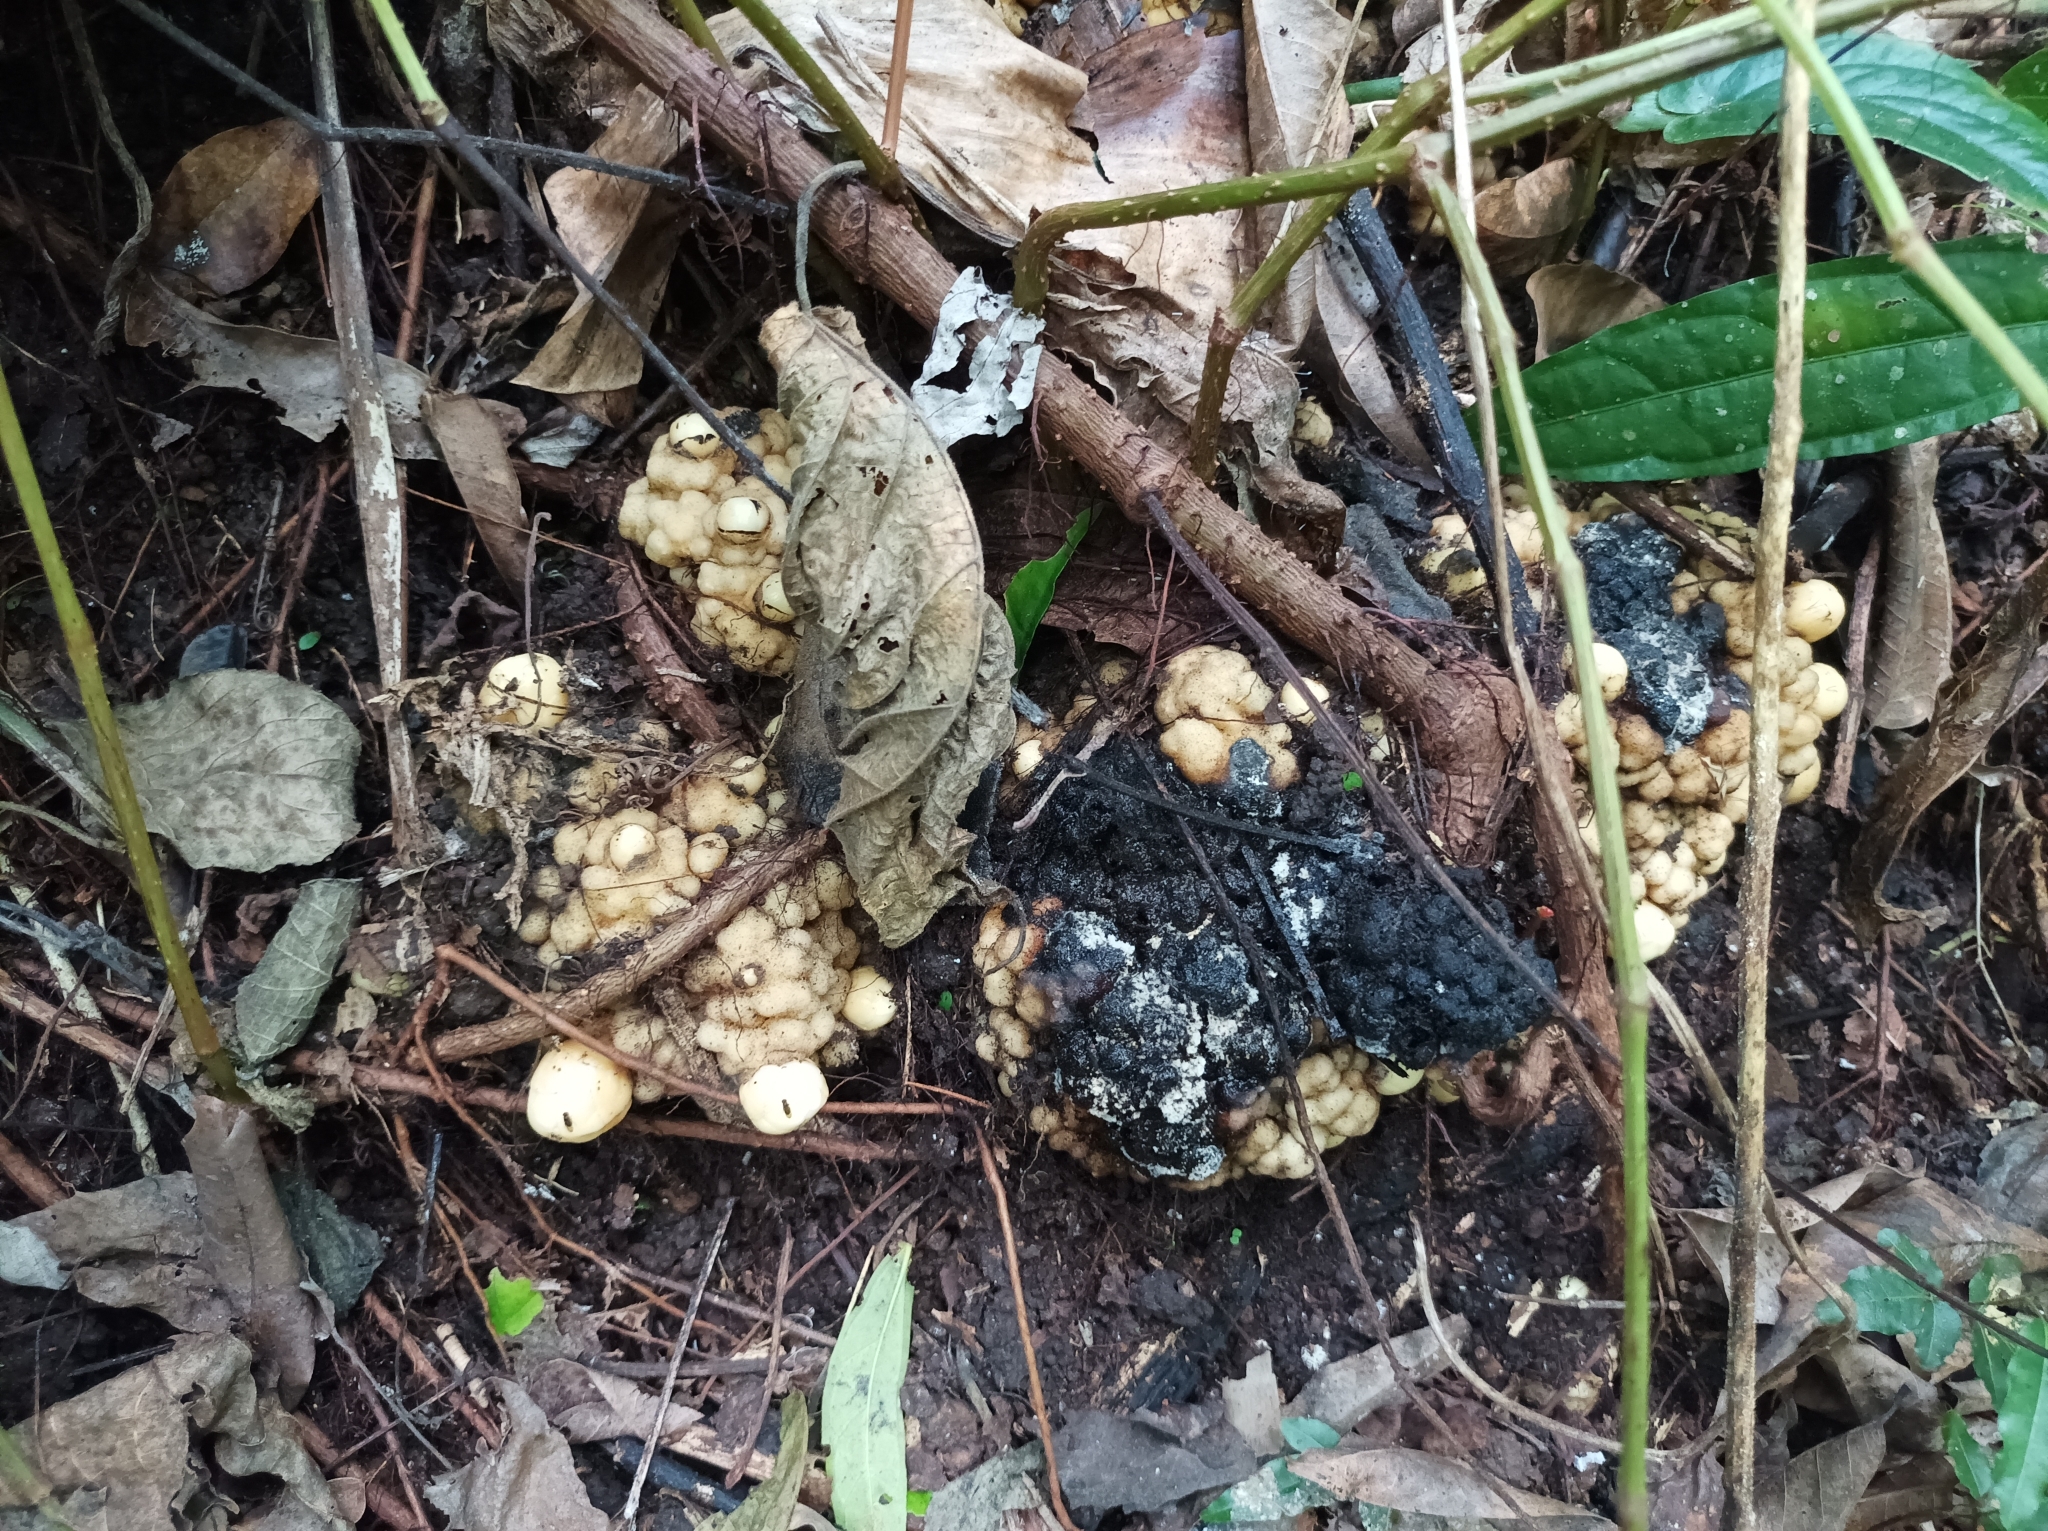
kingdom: Plantae
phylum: Tracheophyta
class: Magnoliopsida
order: Santalales
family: Balanophoraceae
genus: Balanophora
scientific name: Balanophora fungosa
